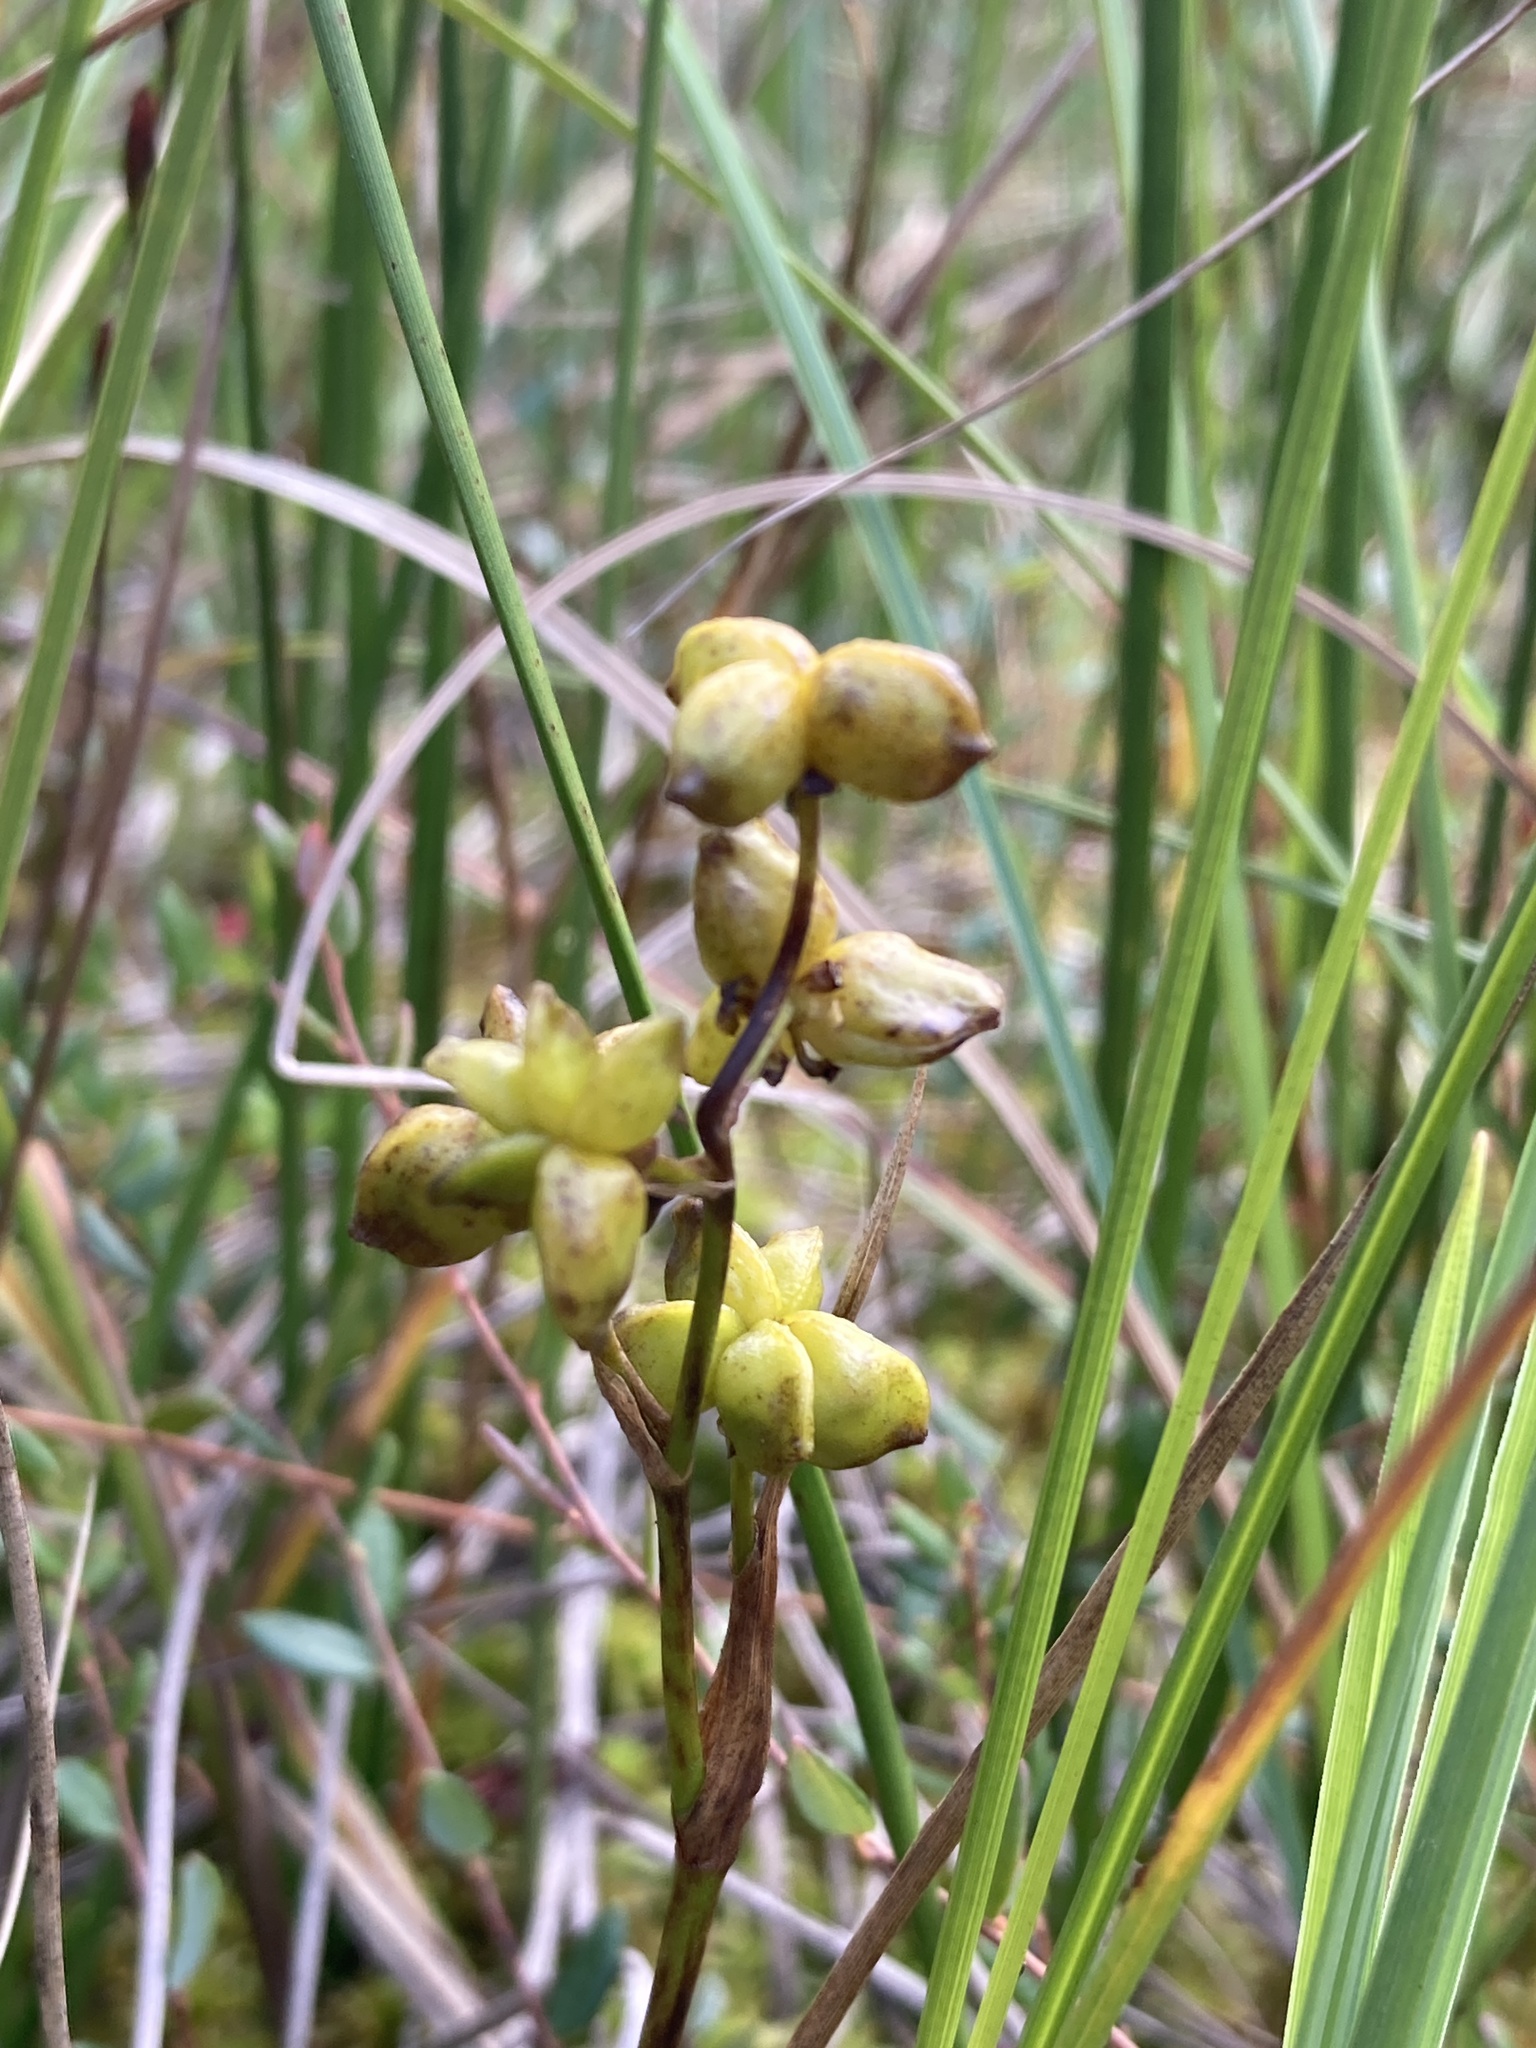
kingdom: Plantae
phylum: Tracheophyta
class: Liliopsida
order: Alismatales
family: Scheuchzeriaceae
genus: Scheuchzeria
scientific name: Scheuchzeria palustris
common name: Rannoch-rush
